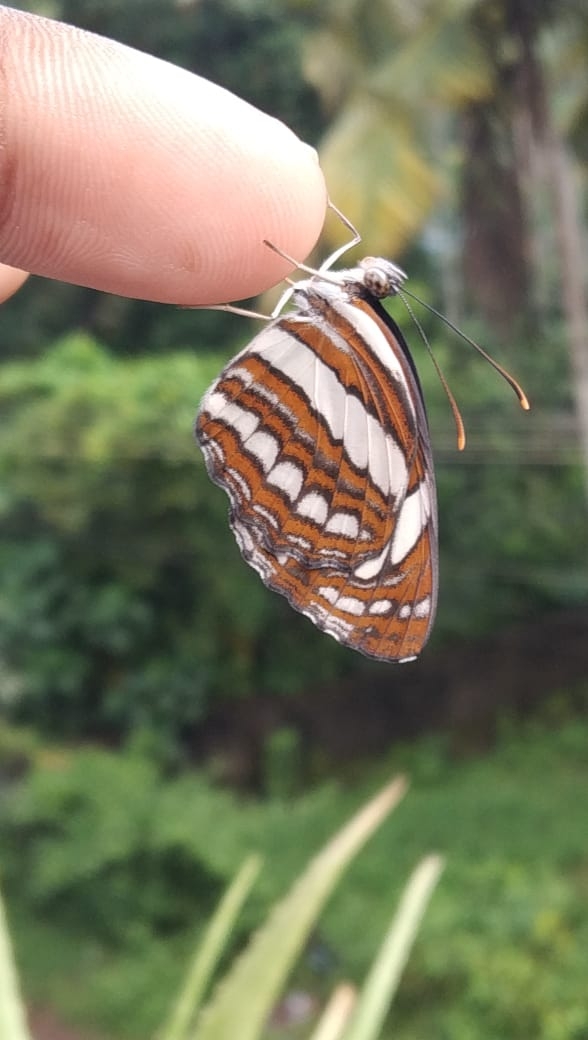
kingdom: Animalia
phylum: Arthropoda
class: Insecta
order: Lepidoptera
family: Nymphalidae
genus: Neptis
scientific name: Neptis hylas
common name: Common sailer
